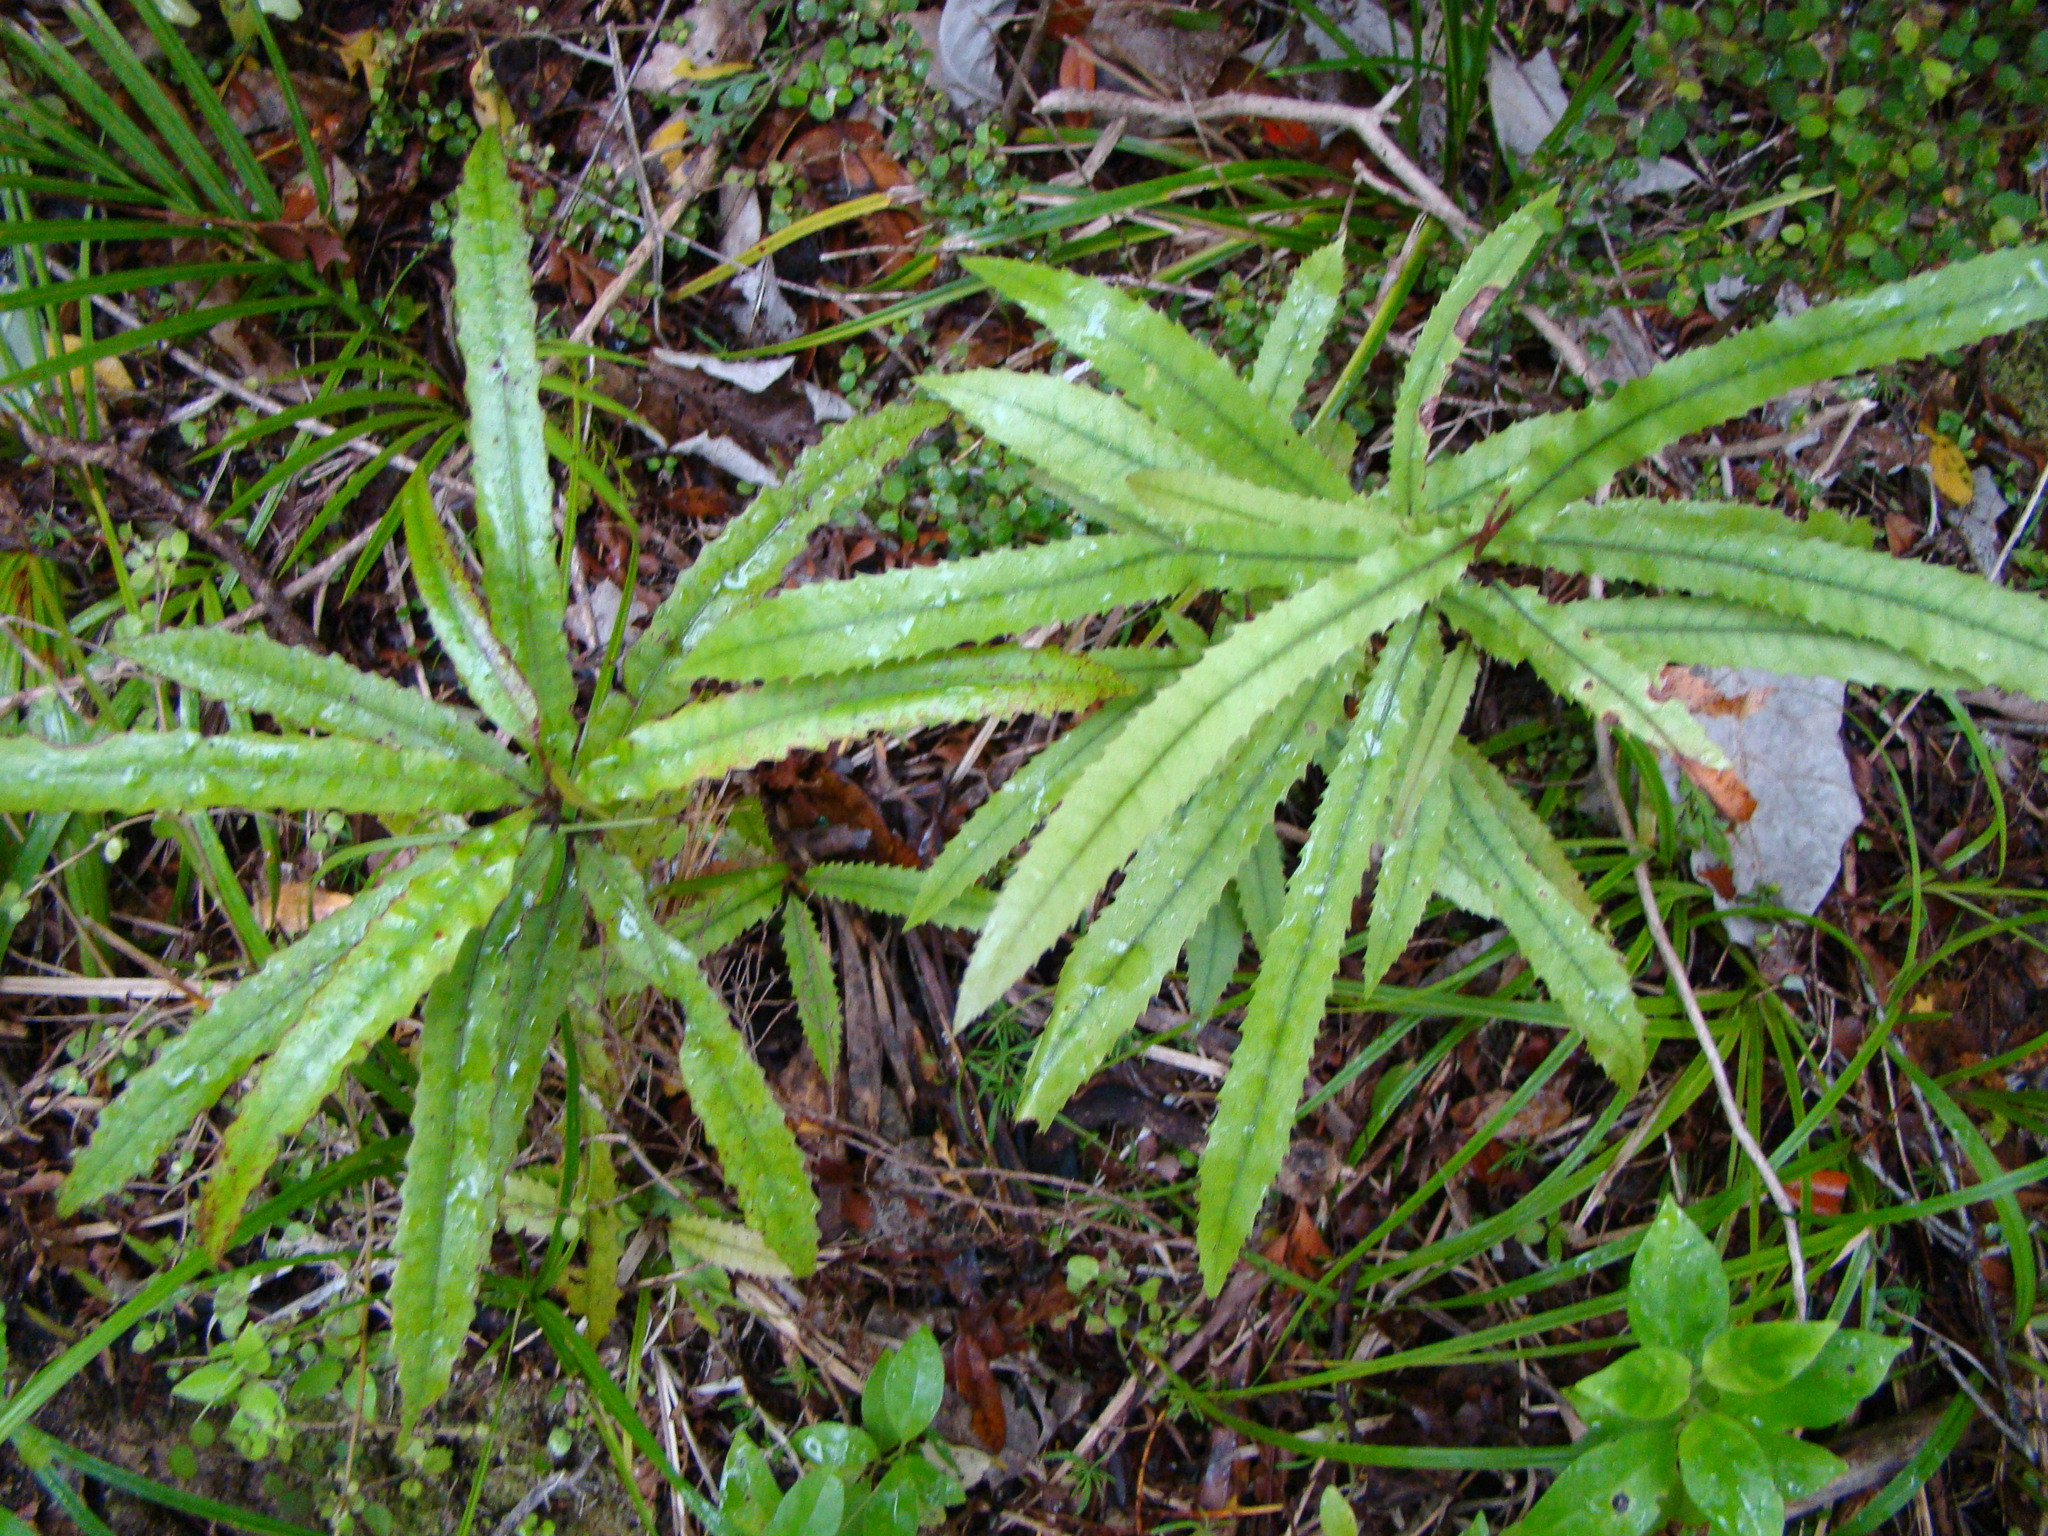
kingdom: Plantae
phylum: Tracheophyta
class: Magnoliopsida
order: Proteales
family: Proteaceae
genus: Knightia
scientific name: Knightia excelsa
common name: New zealand-honeysuckle
